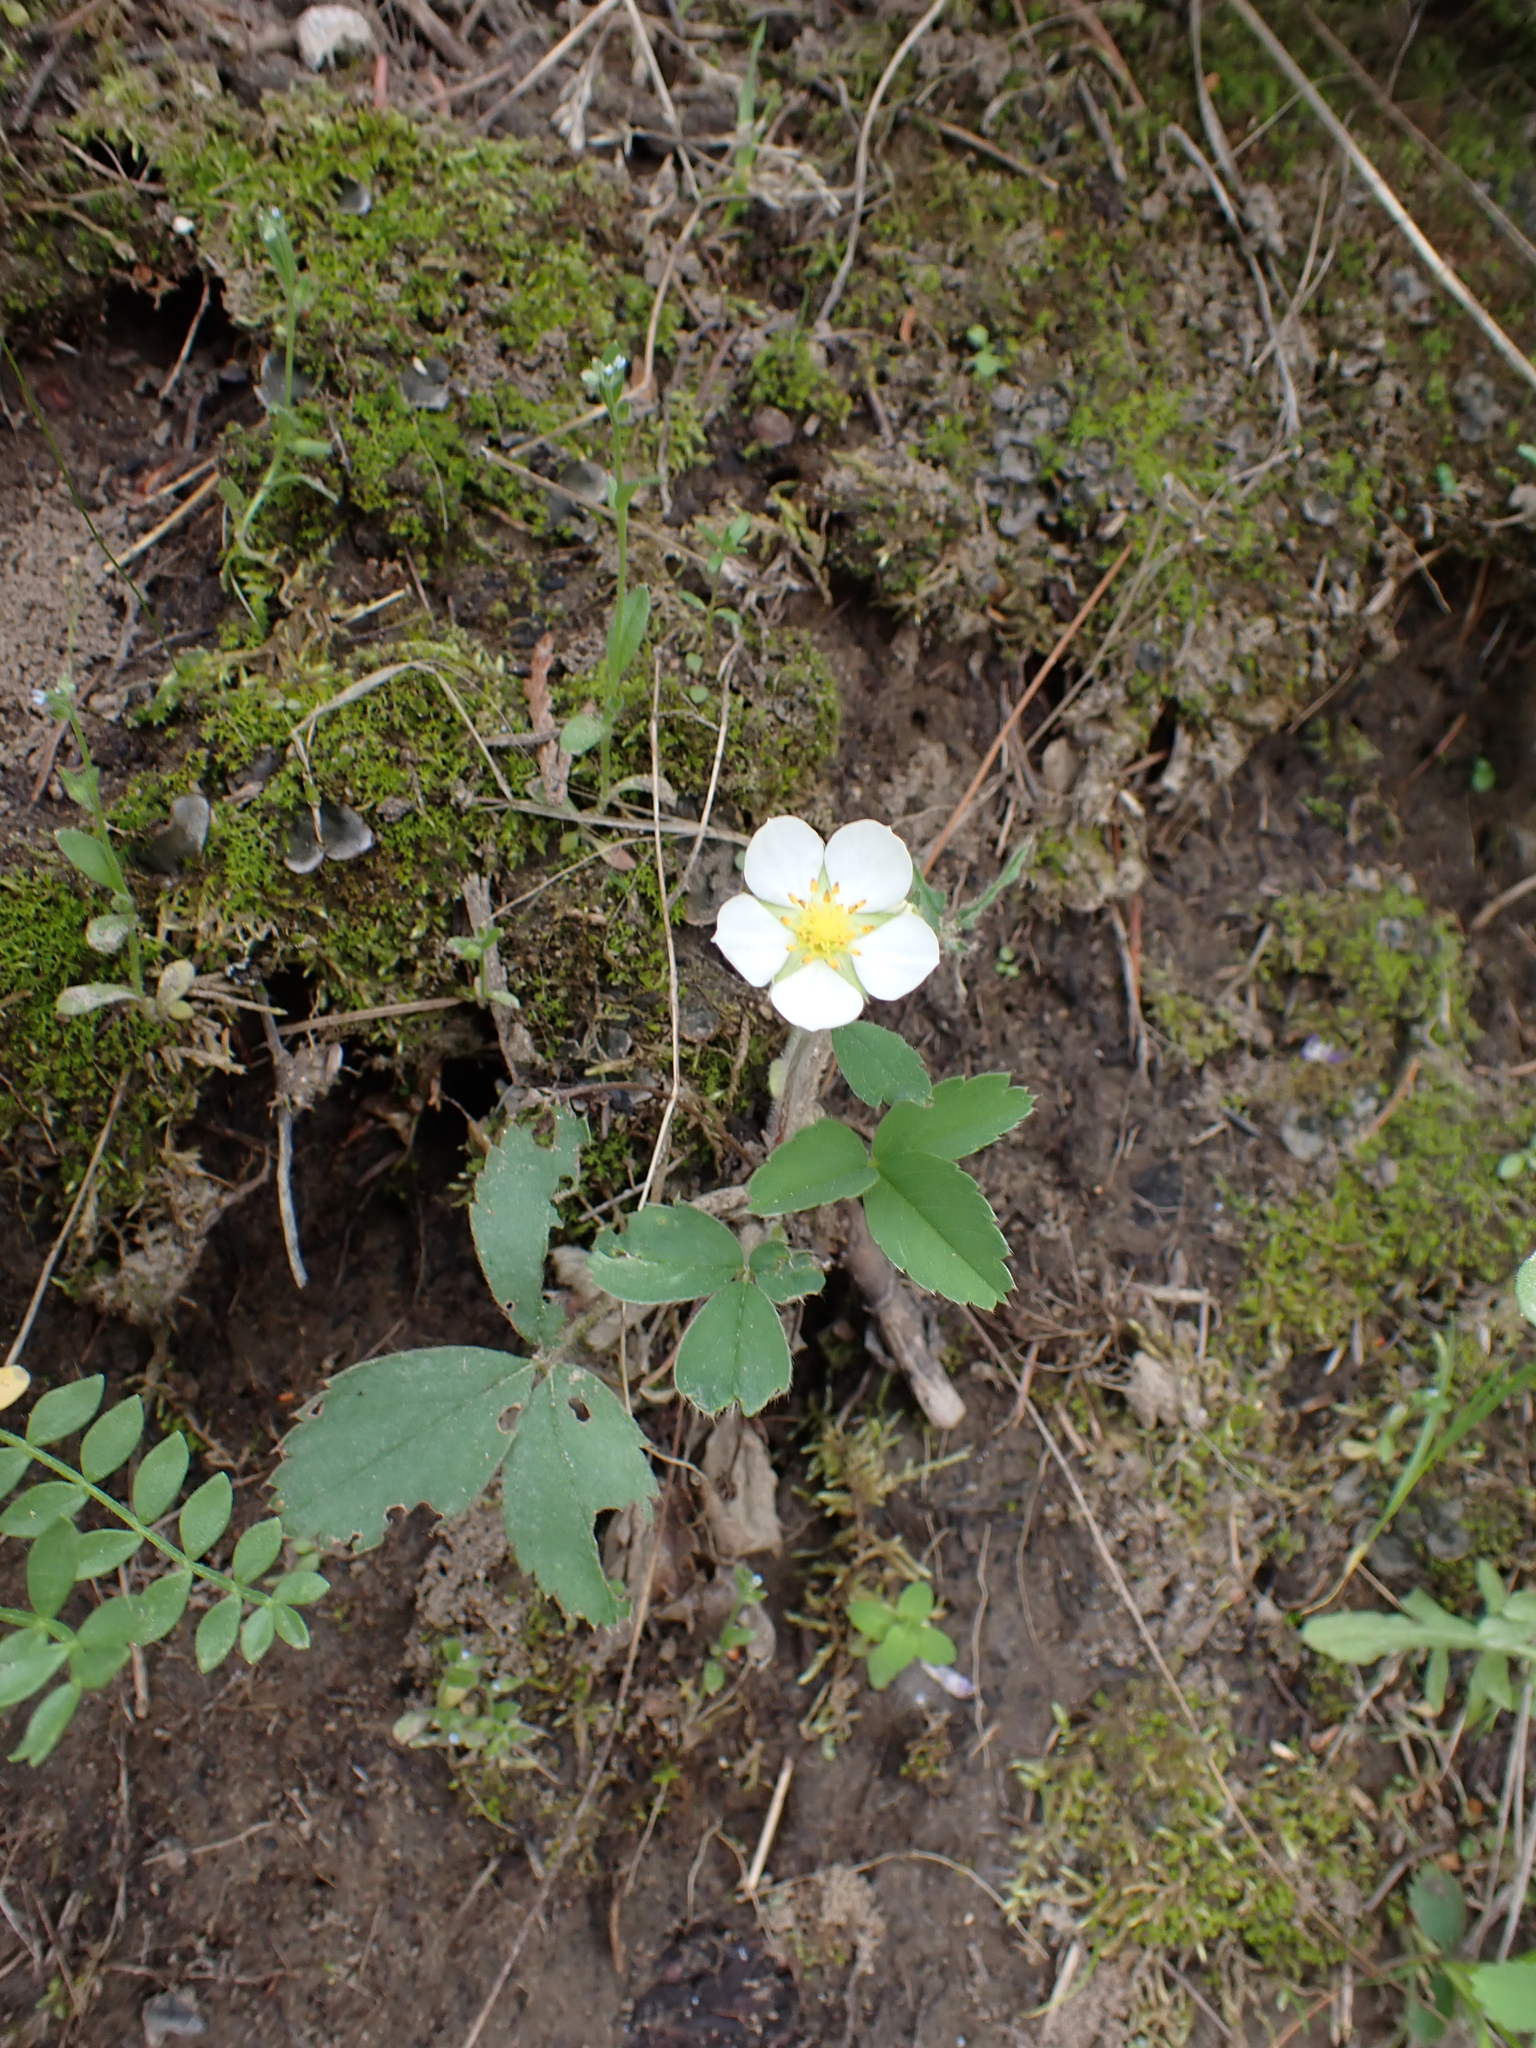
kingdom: Plantae
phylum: Tracheophyta
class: Magnoliopsida
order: Rosales
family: Rosaceae
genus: Fragaria
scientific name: Fragaria virginiana
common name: Thickleaved wild strawberry
